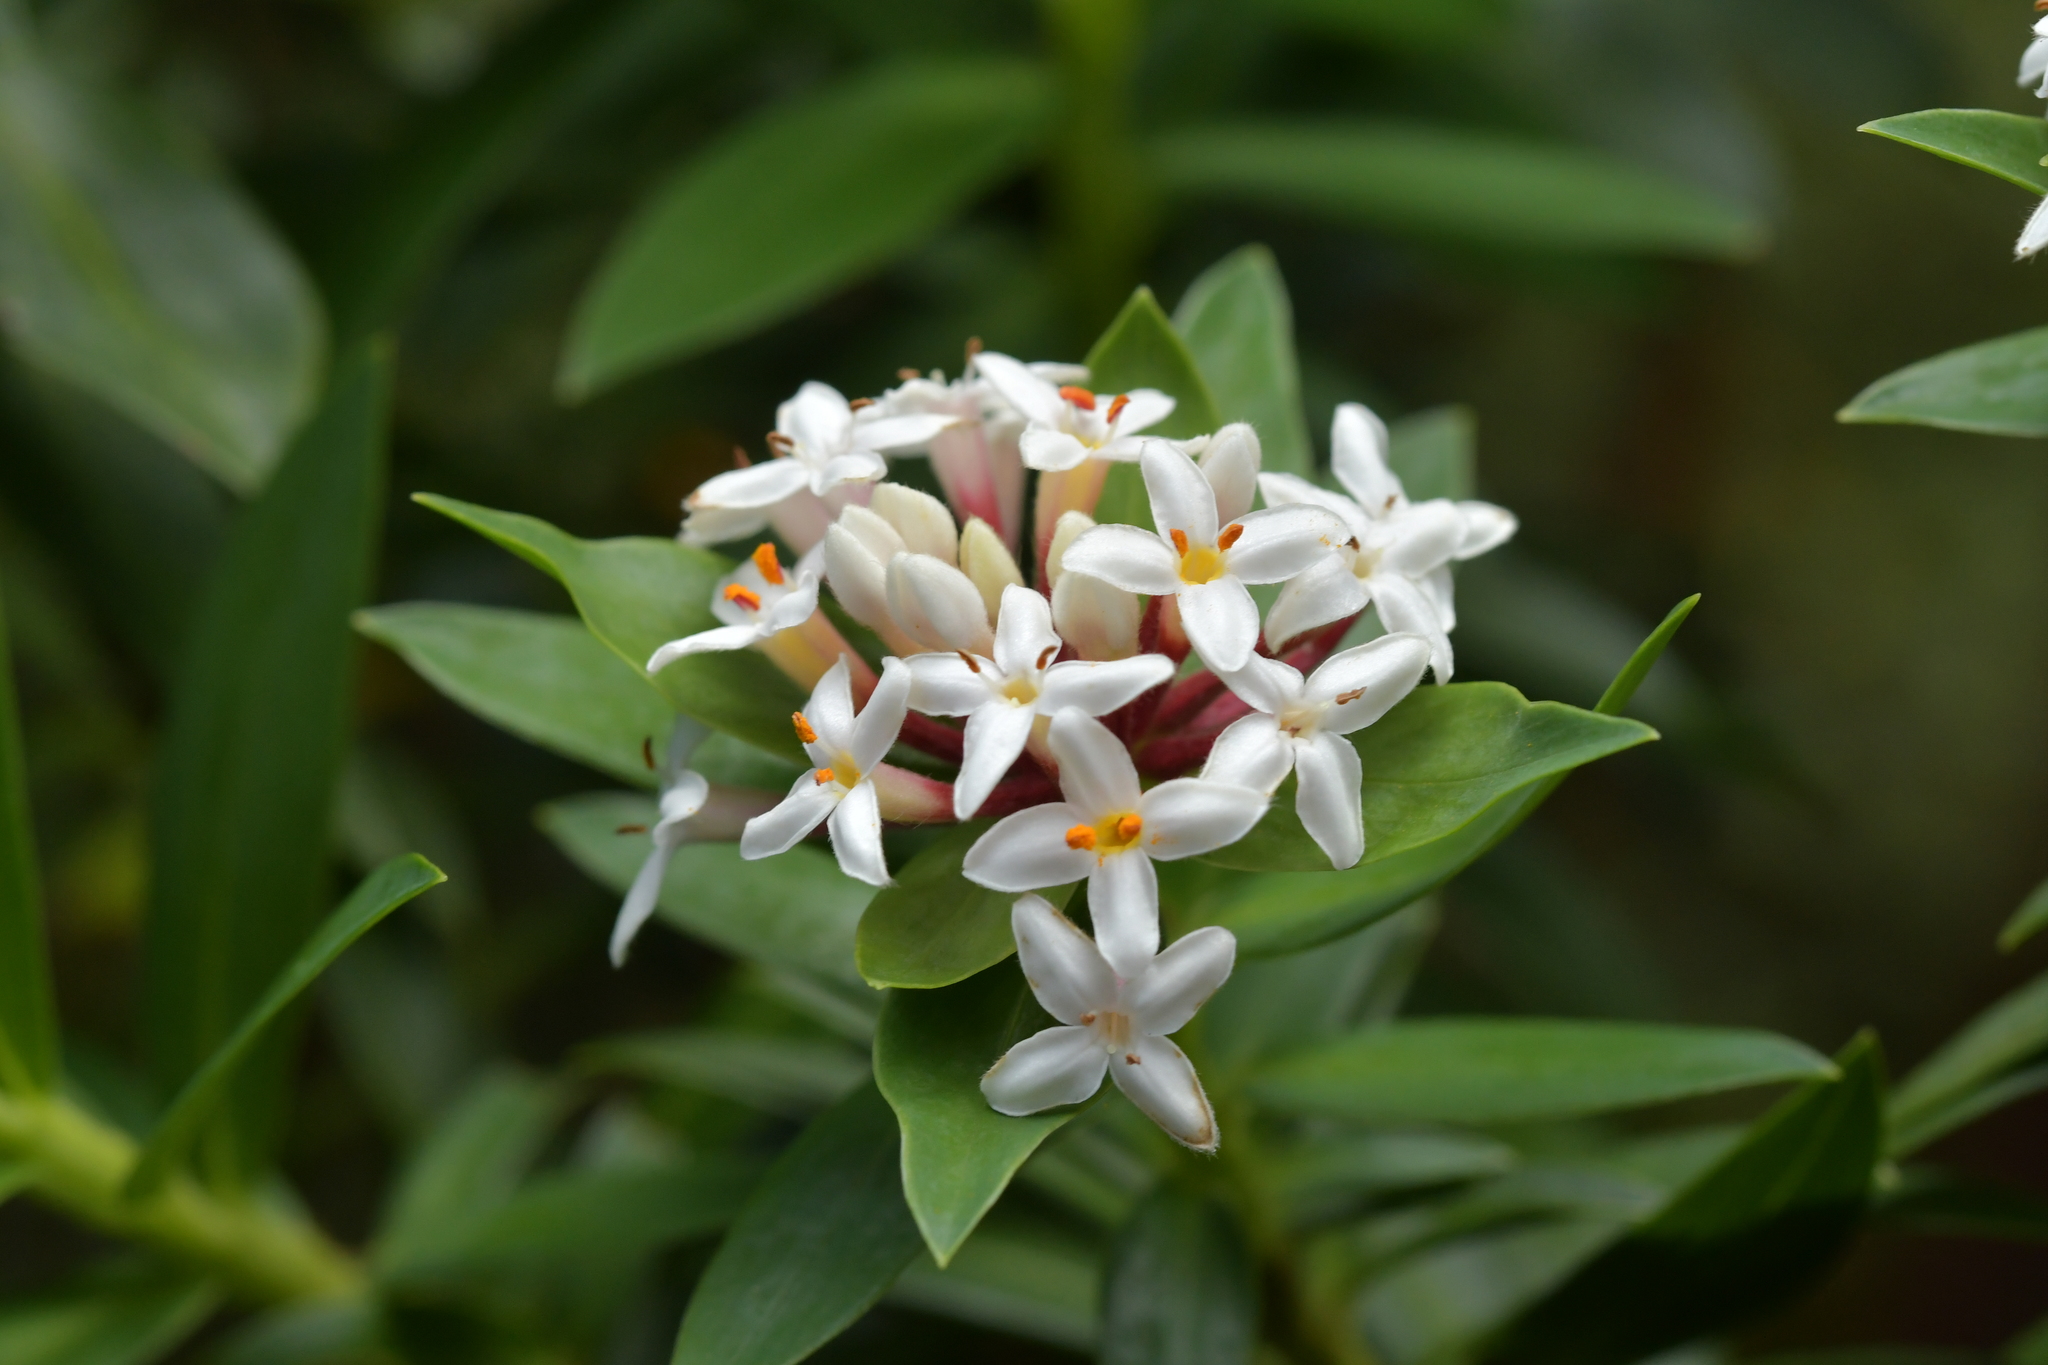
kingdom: Plantae
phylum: Tracheophyta
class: Magnoliopsida
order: Malvales
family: Thymelaeaceae
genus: Pimelea
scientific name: Pimelea gnidia
